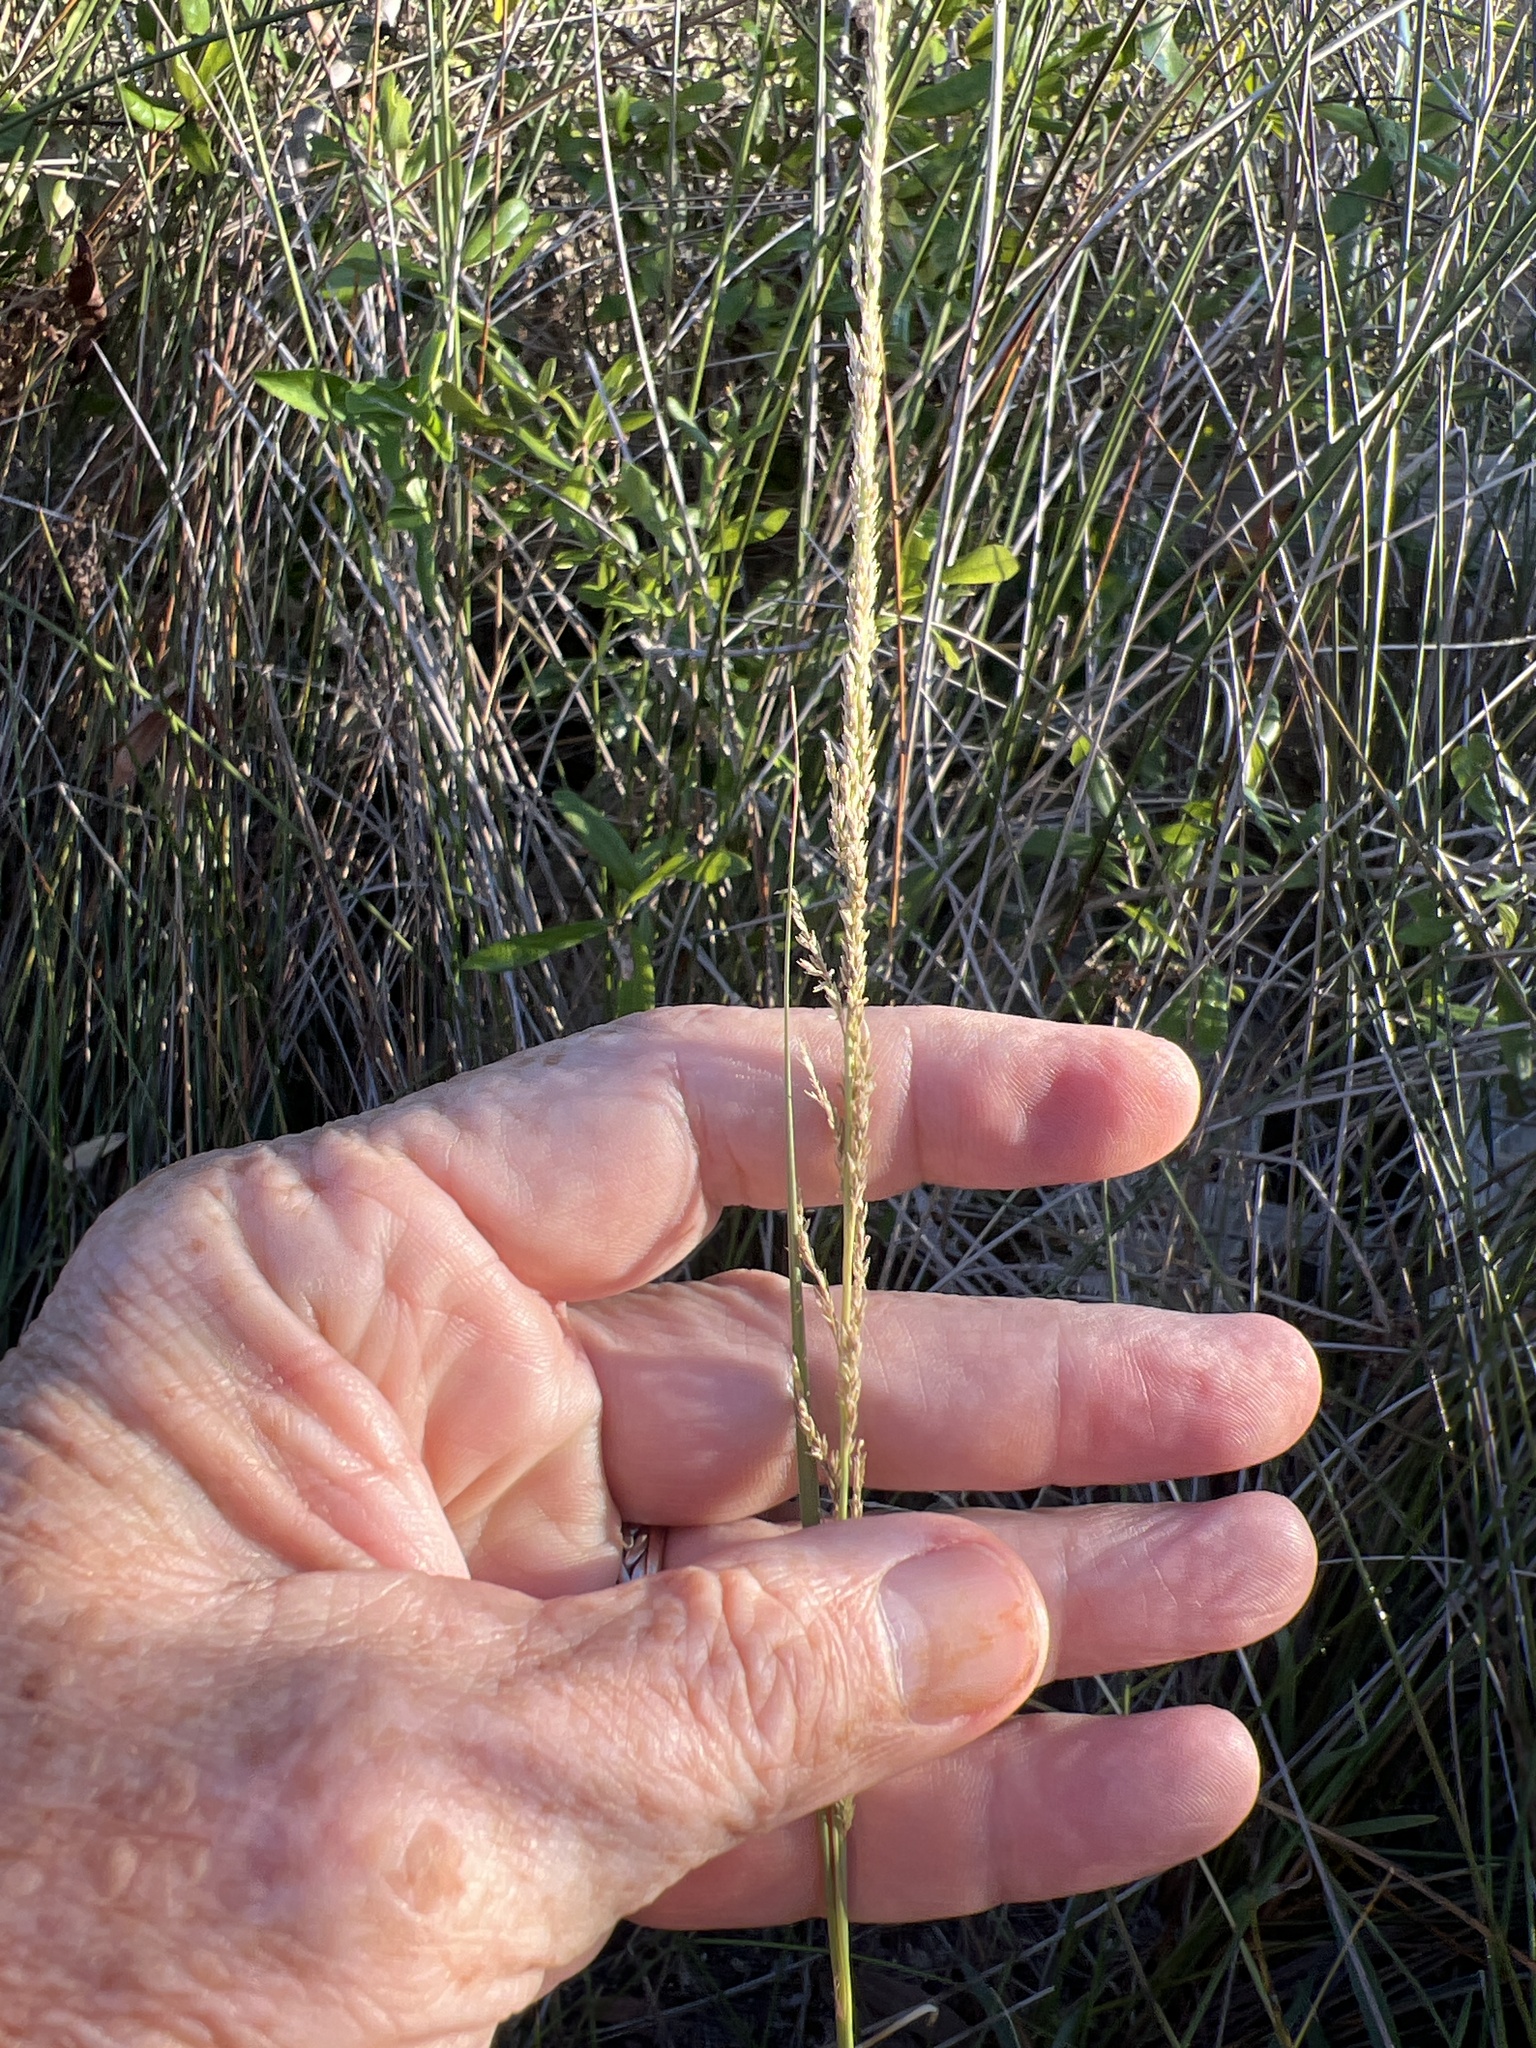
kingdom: Plantae
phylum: Tracheophyta
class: Liliopsida
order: Poales
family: Poaceae
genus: Sporobolus
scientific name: Sporobolus indicus
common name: Smut grass
